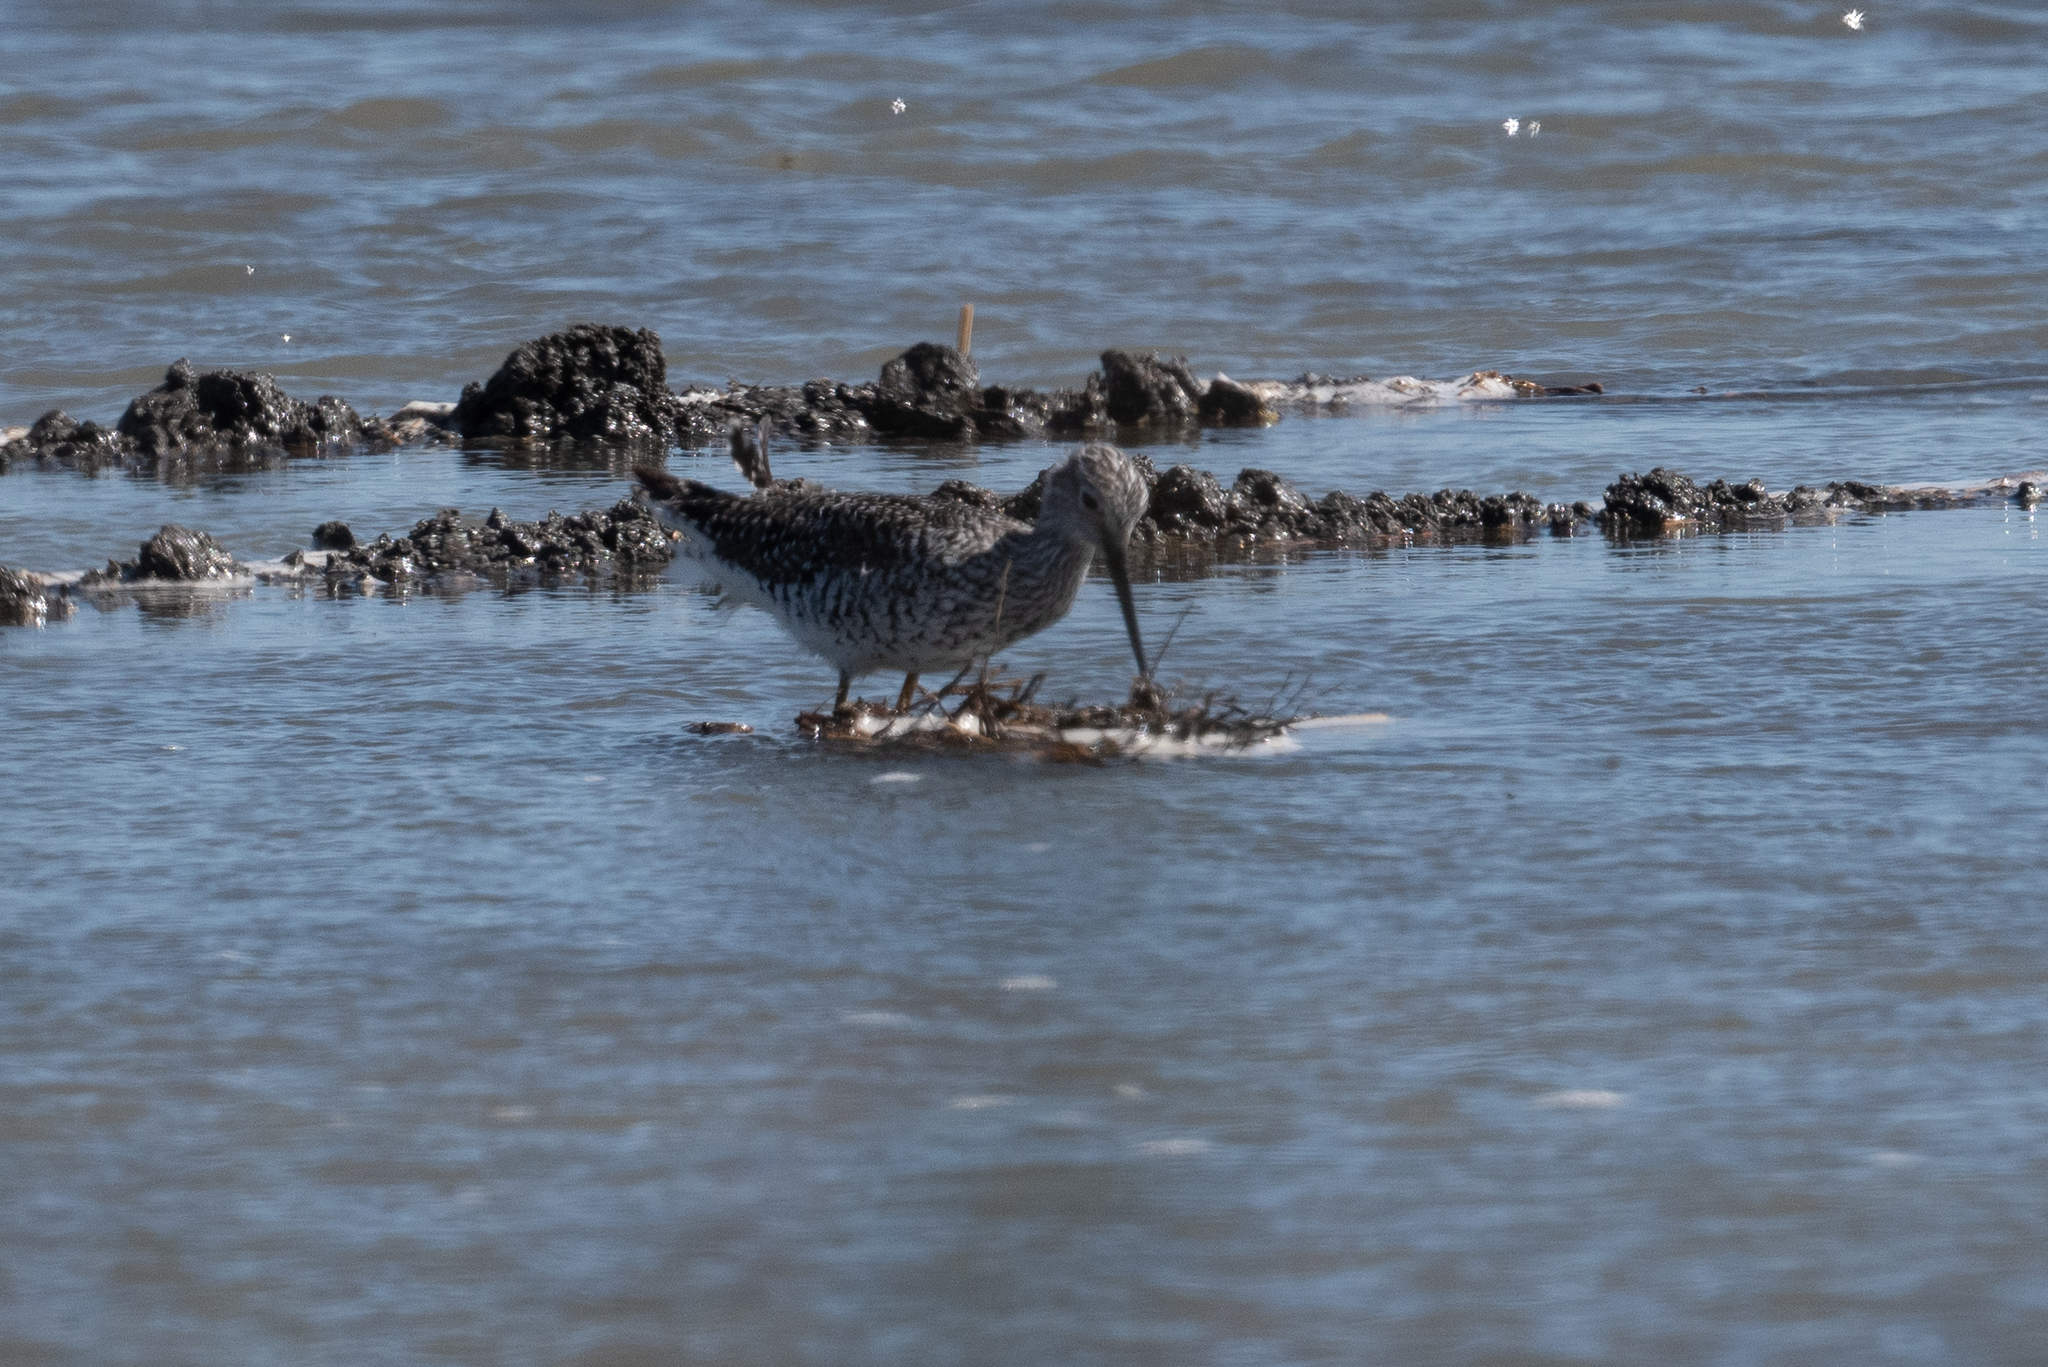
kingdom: Animalia
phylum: Chordata
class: Aves
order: Charadriiformes
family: Scolopacidae
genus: Tringa
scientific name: Tringa melanoleuca
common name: Greater yellowlegs
